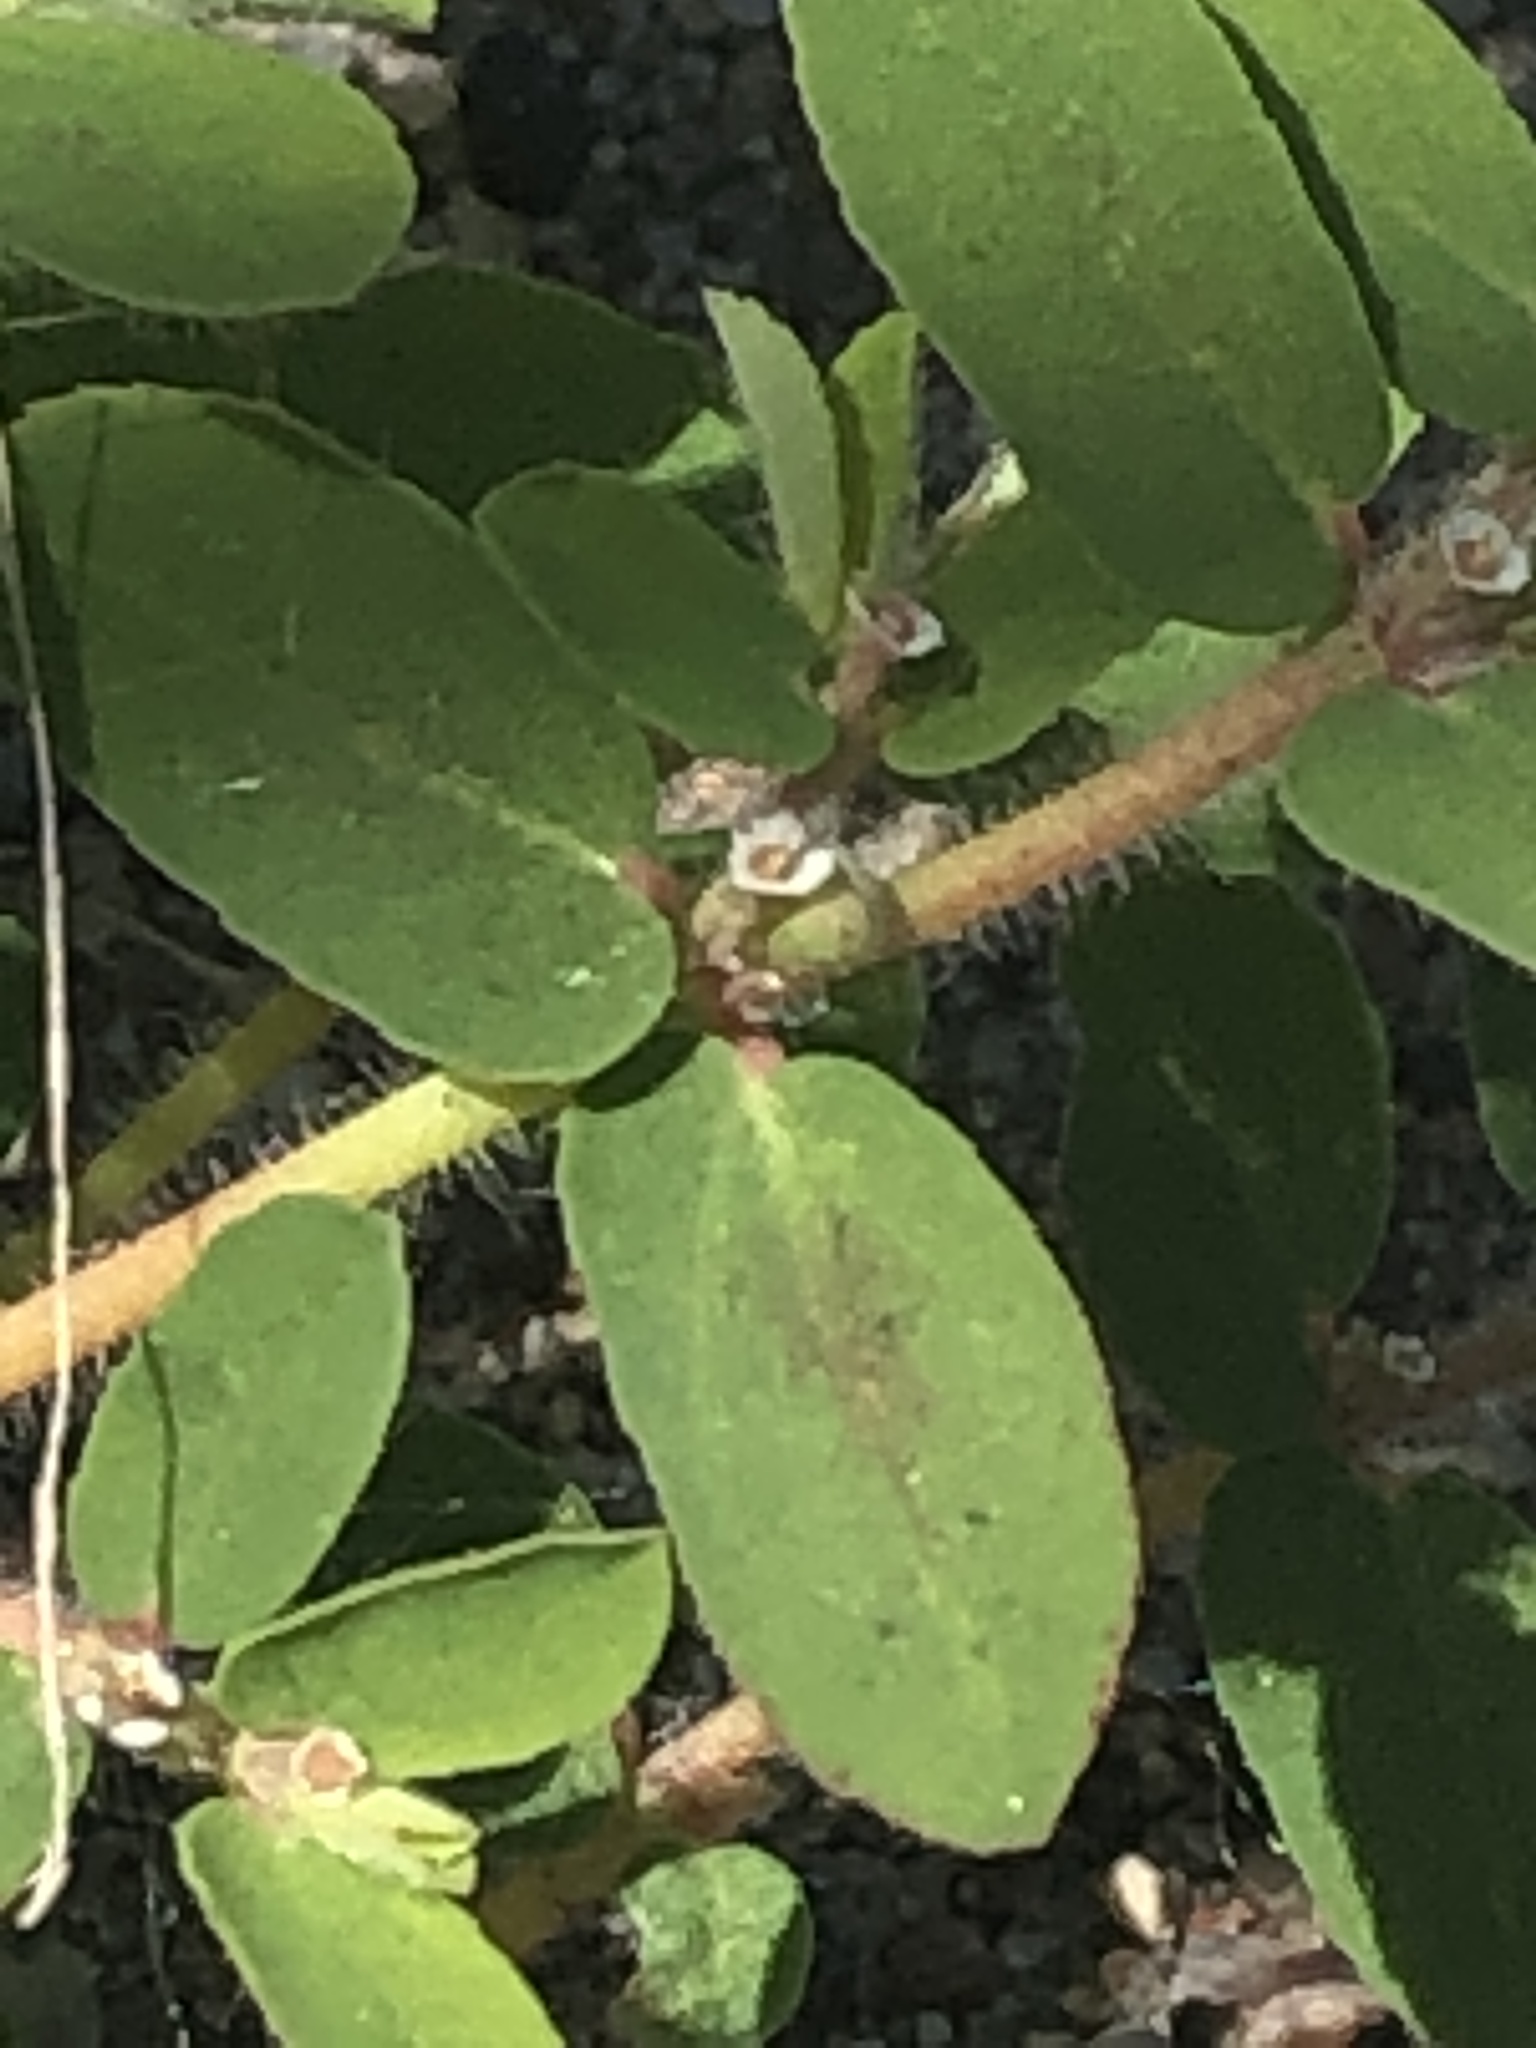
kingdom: Plantae
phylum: Tracheophyta
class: Magnoliopsida
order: Malpighiales
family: Euphorbiaceae
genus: Euphorbia
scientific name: Euphorbia maculata
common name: Spotted spurge
